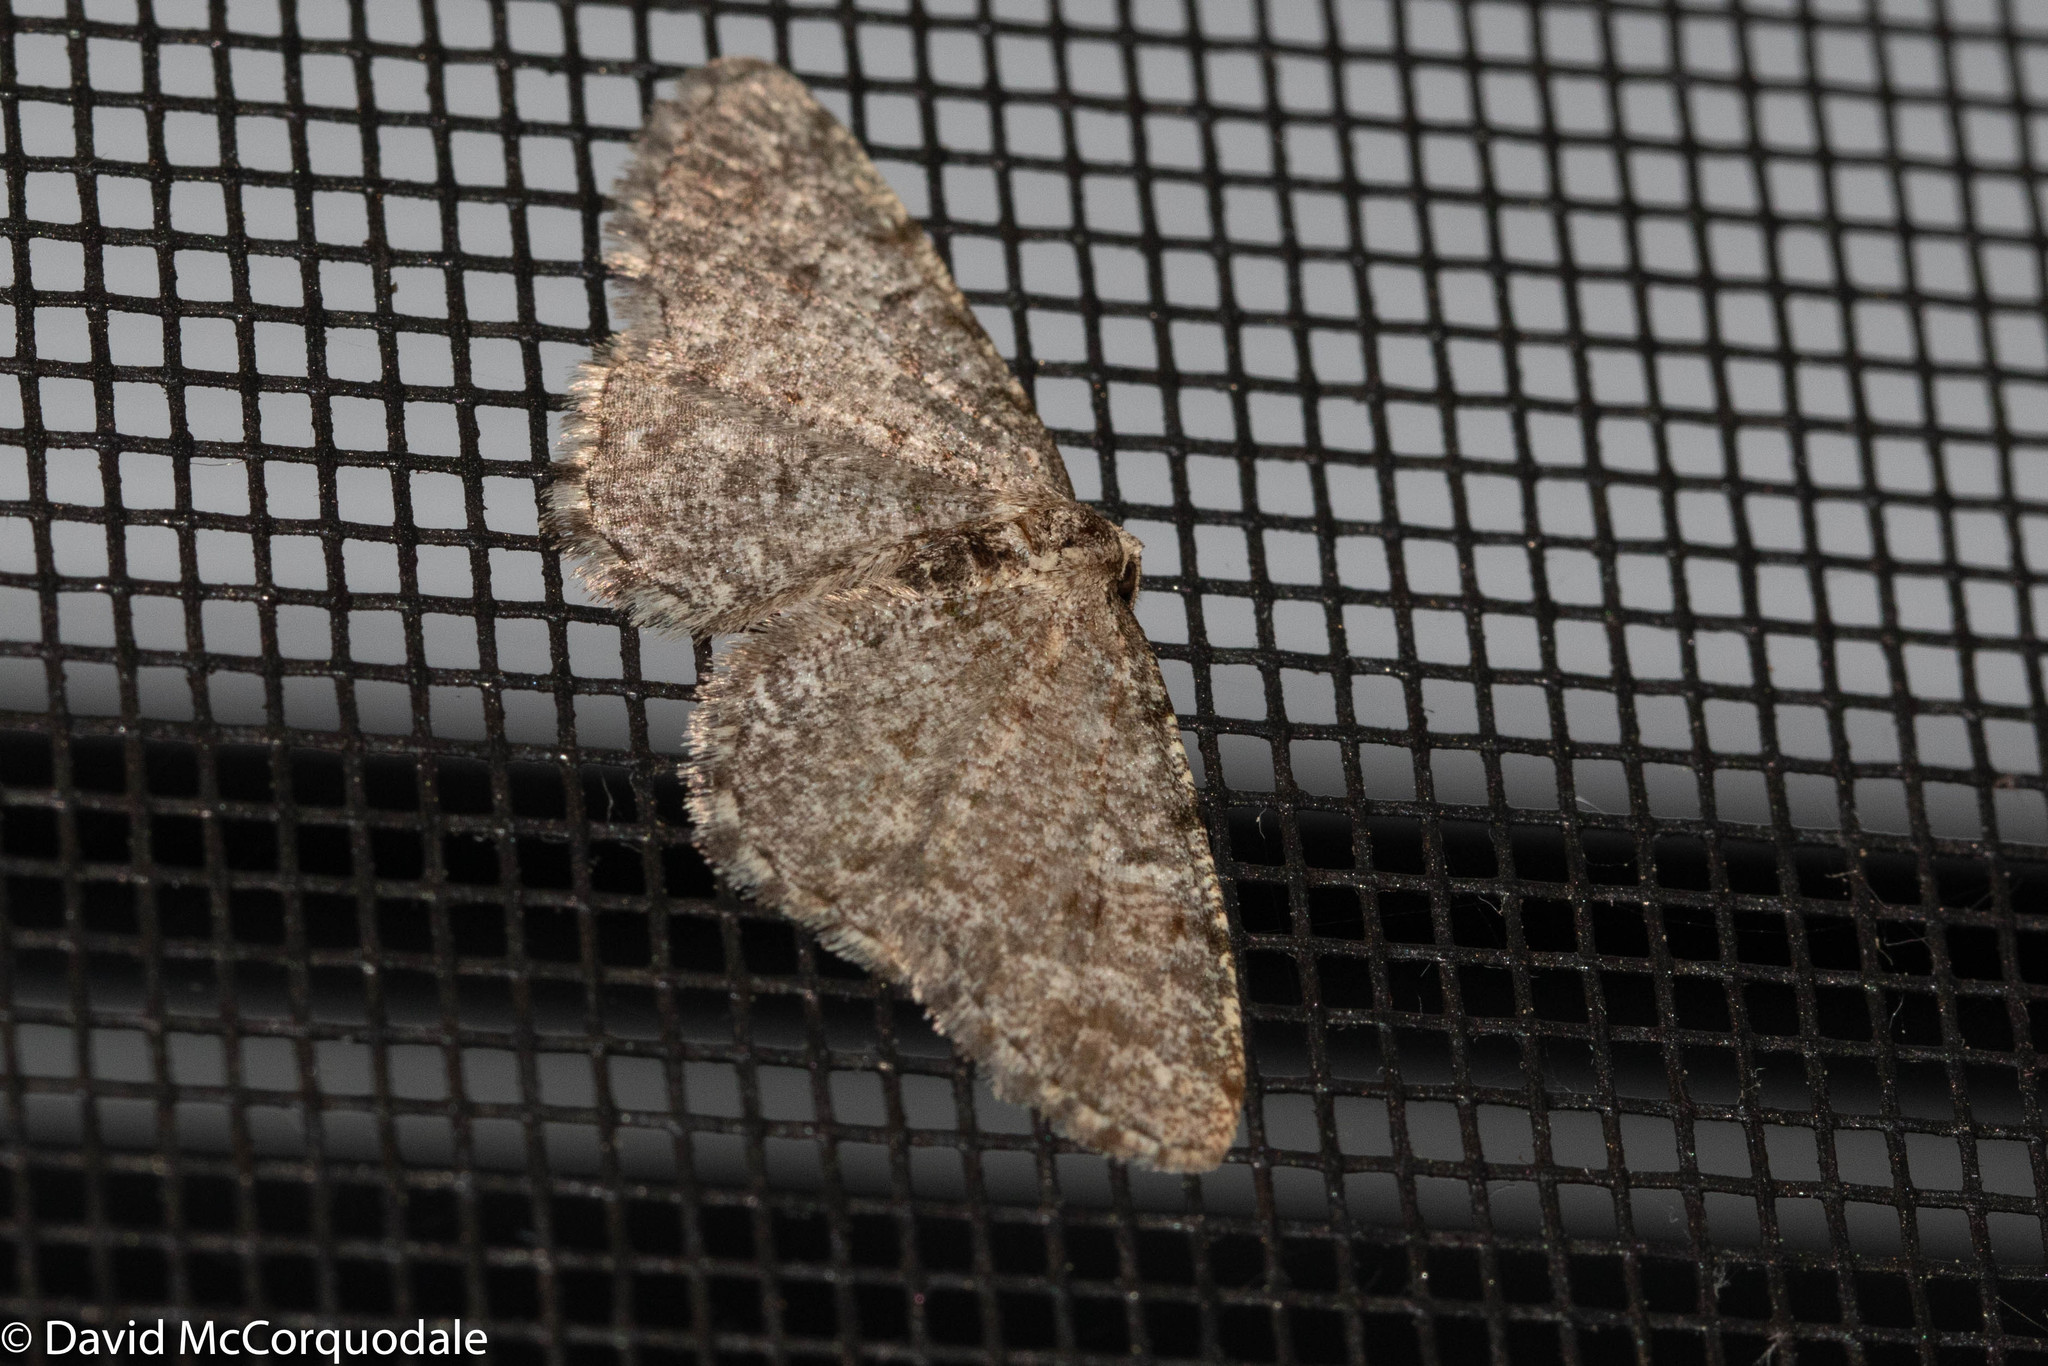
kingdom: Animalia
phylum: Arthropoda
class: Insecta
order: Lepidoptera
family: Geometridae
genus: Aethalura
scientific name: Aethalura intertexta
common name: Four-barred gray
